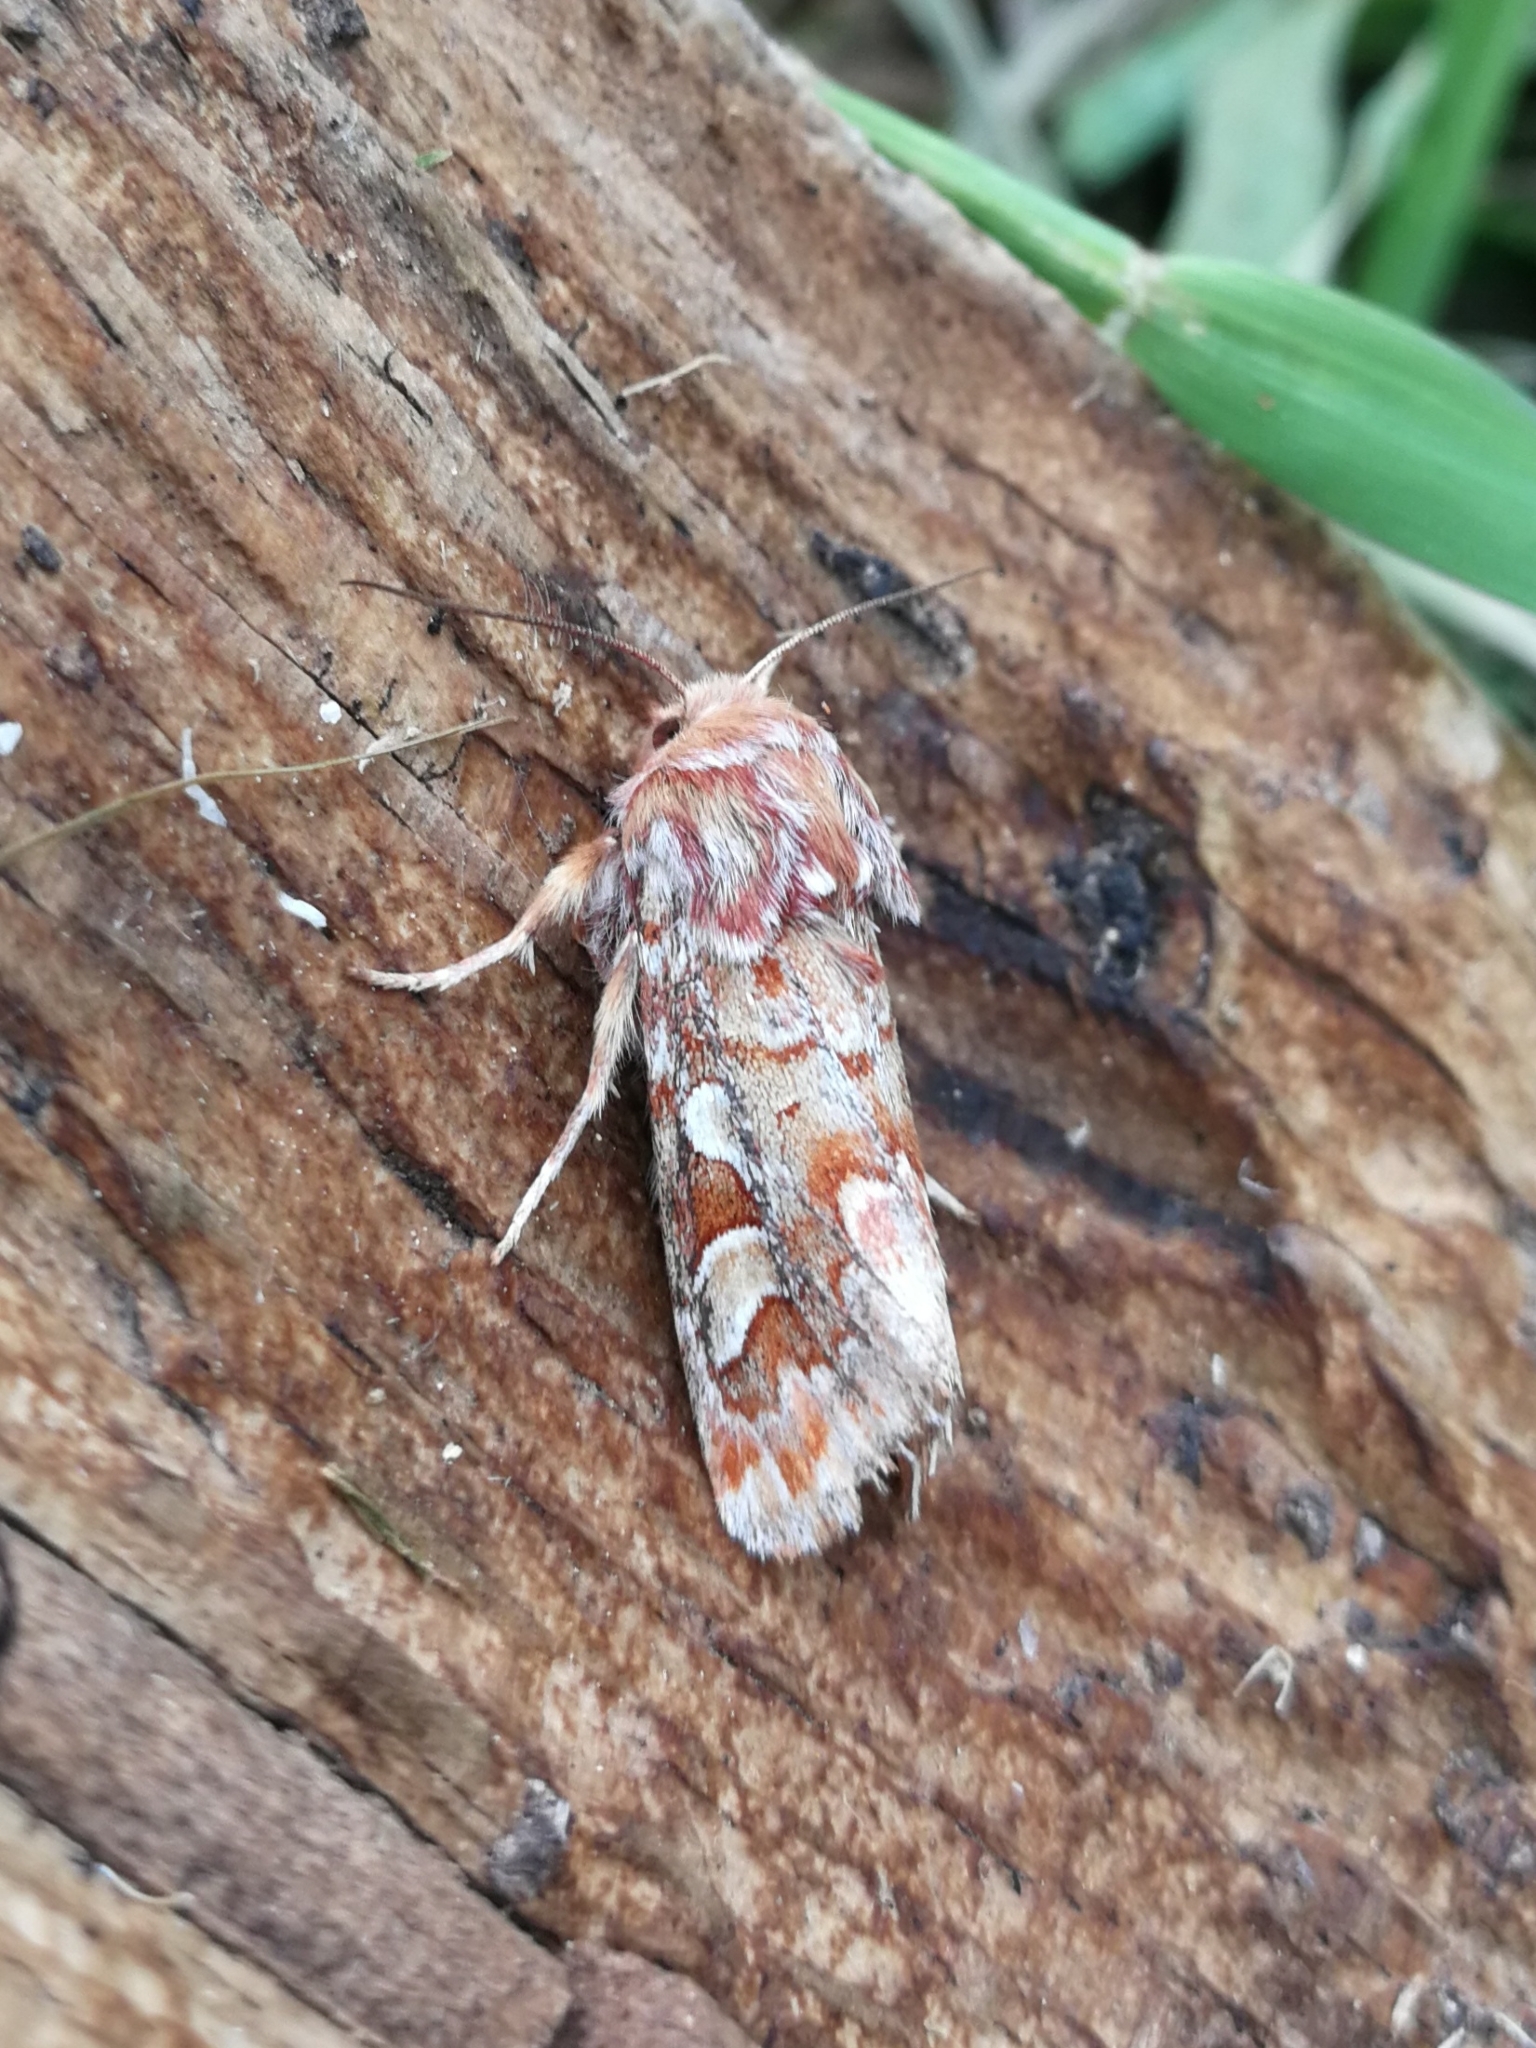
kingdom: Animalia
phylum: Arthropoda
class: Insecta
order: Lepidoptera
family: Noctuidae
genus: Panolis
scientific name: Panolis flammea
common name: Pine beauty
